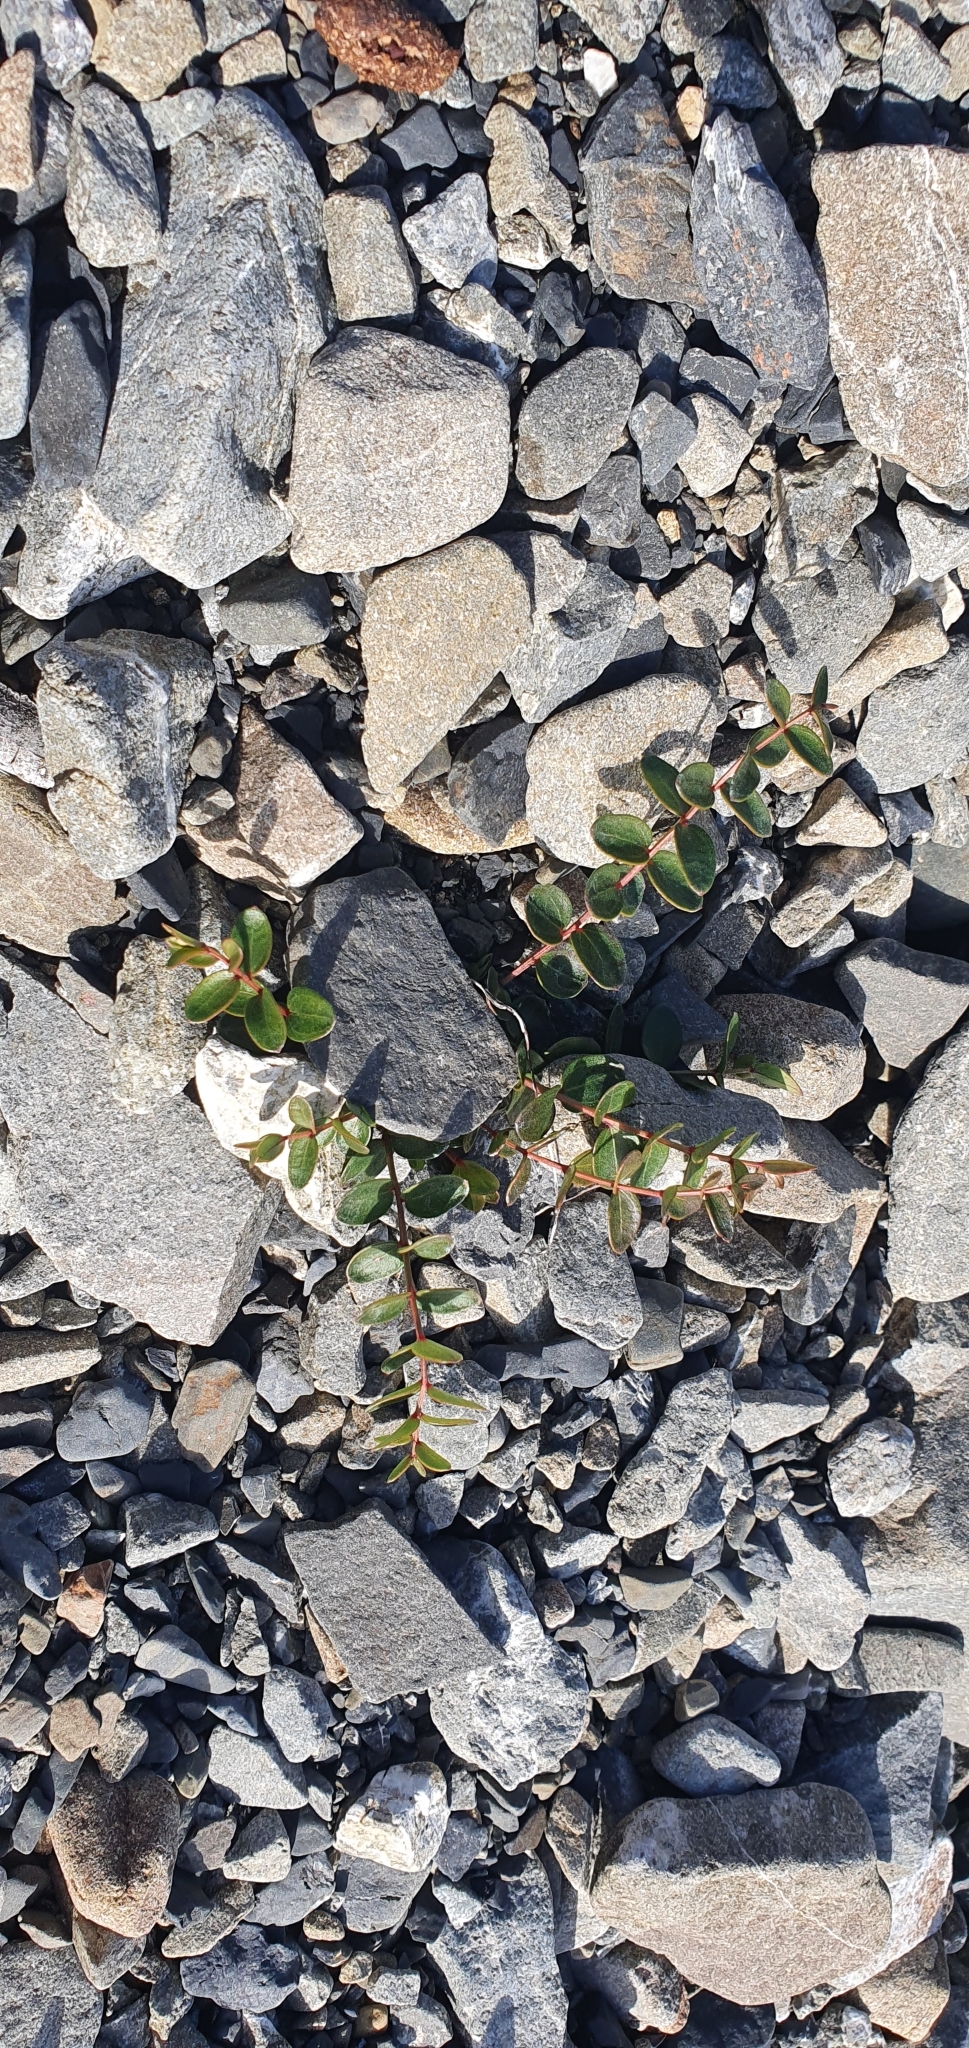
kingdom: Plantae
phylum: Tracheophyta
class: Magnoliopsida
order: Cucurbitales
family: Coriariaceae
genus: Coriaria
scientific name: Coriaria sarmentosa
